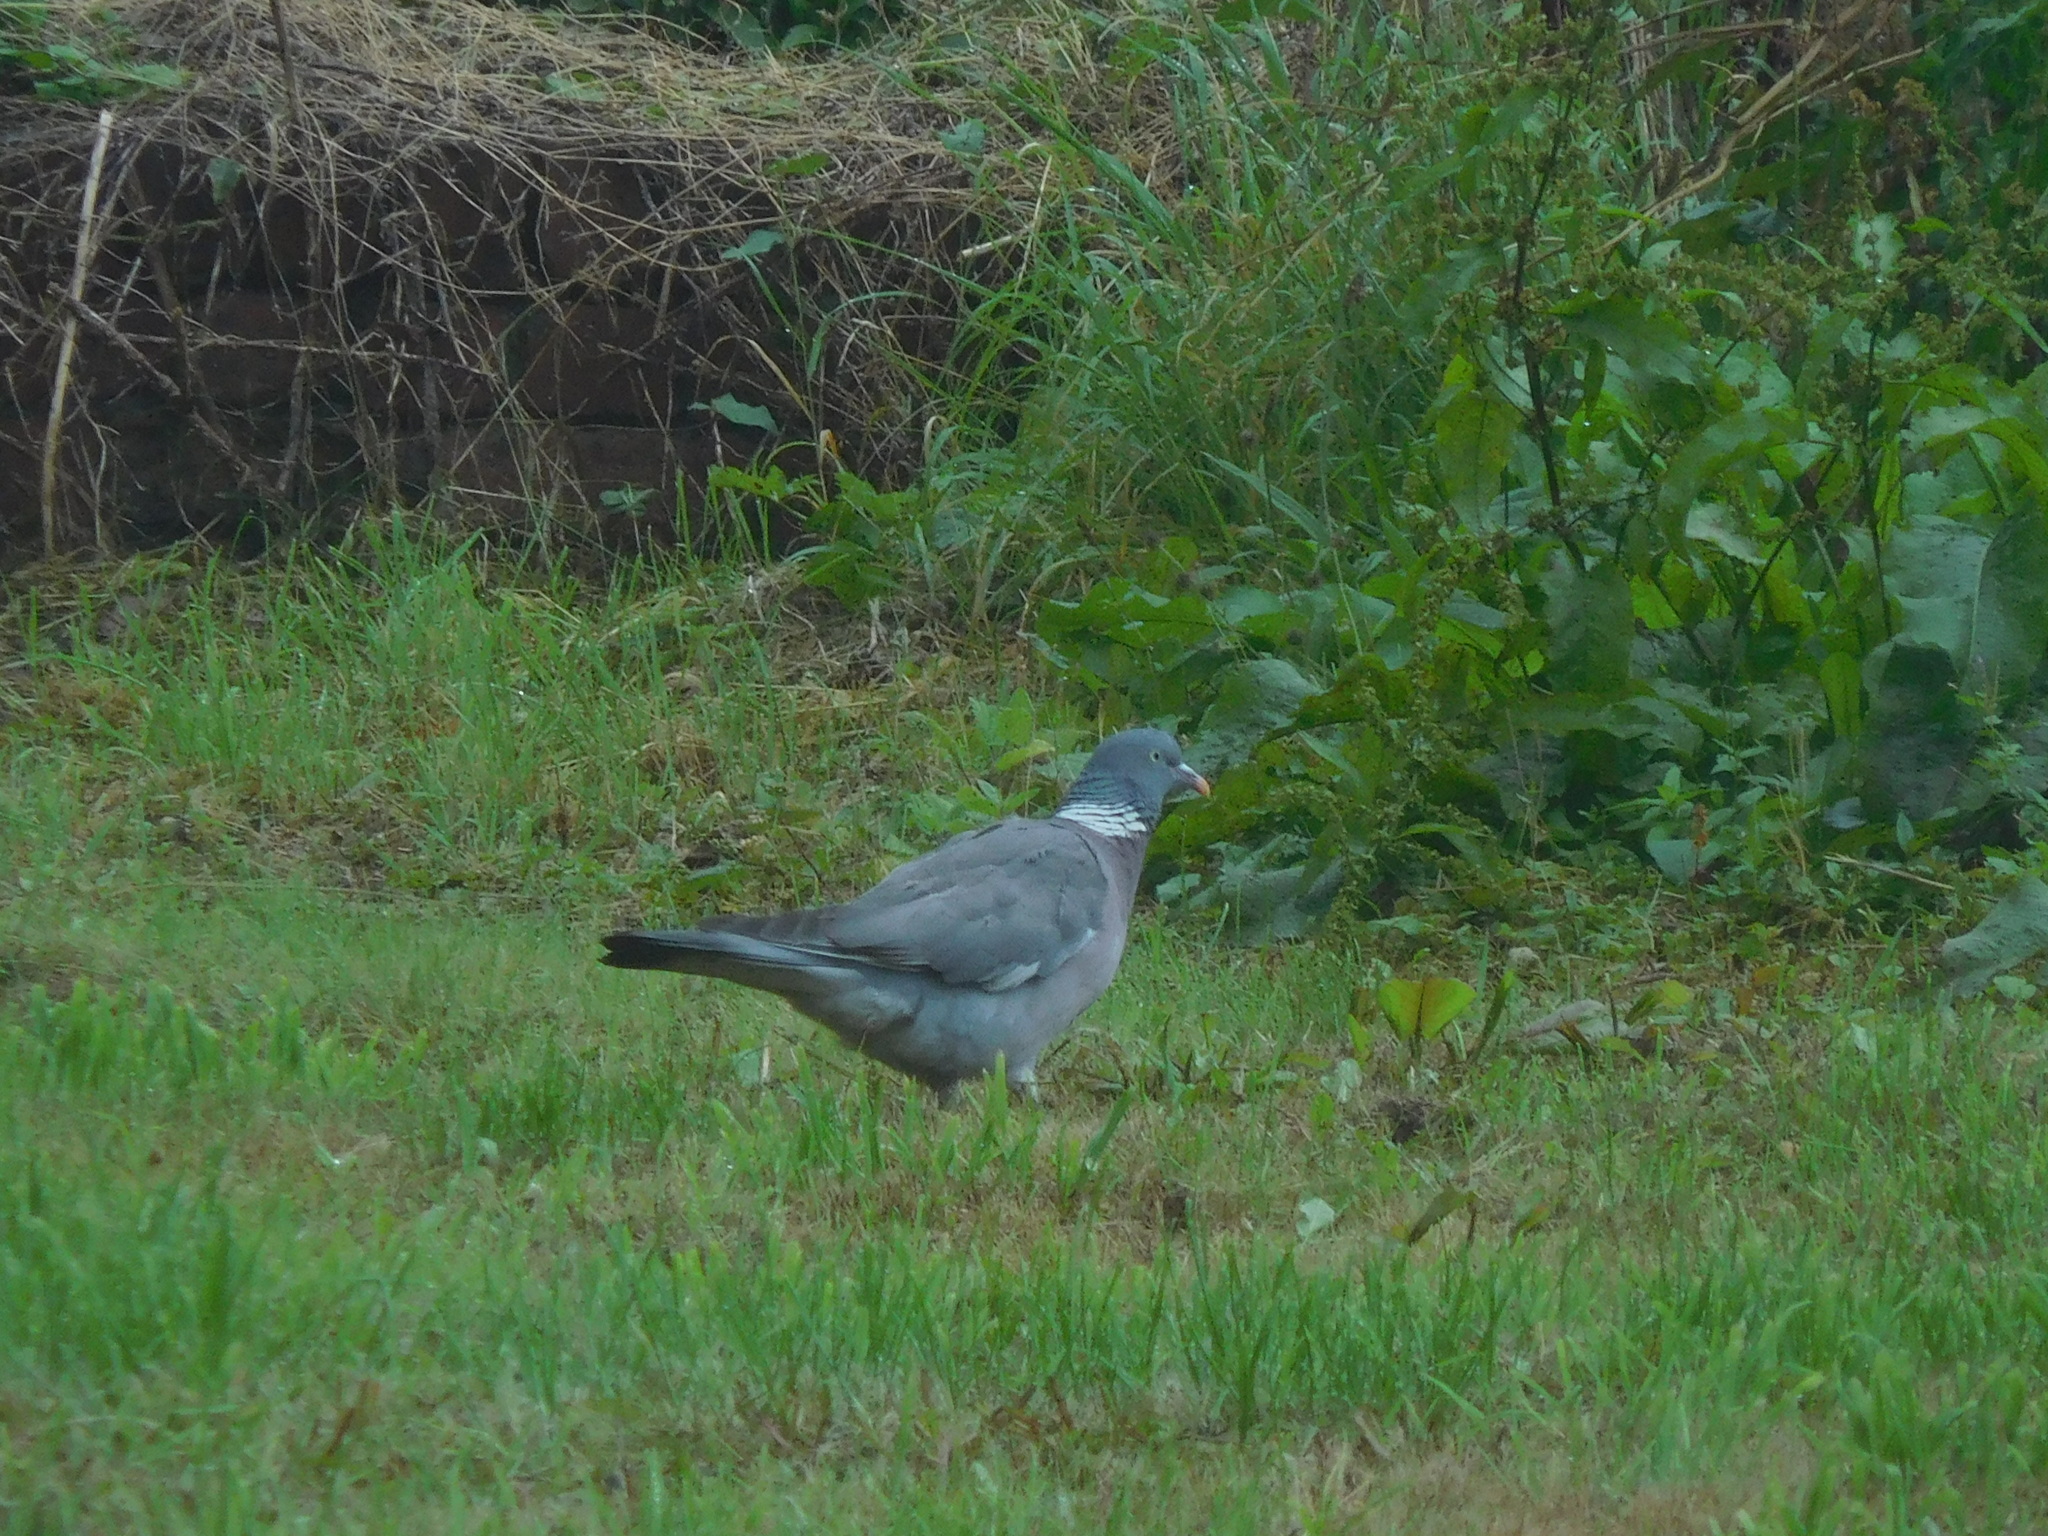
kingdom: Animalia
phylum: Chordata
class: Aves
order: Columbiformes
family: Columbidae
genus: Columba
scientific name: Columba palumbus
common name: Common wood pigeon
